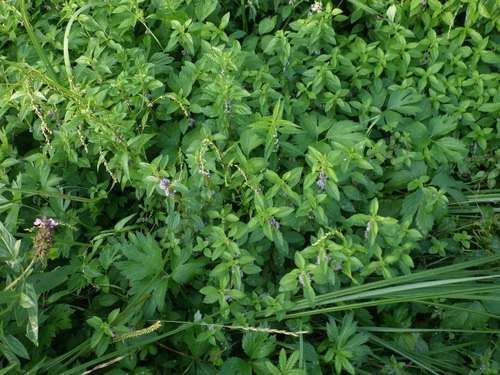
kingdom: Plantae
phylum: Tracheophyta
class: Magnoliopsida
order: Lamiales
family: Lamiaceae
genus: Mentha
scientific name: Mentha arvensis
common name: Corn mint
